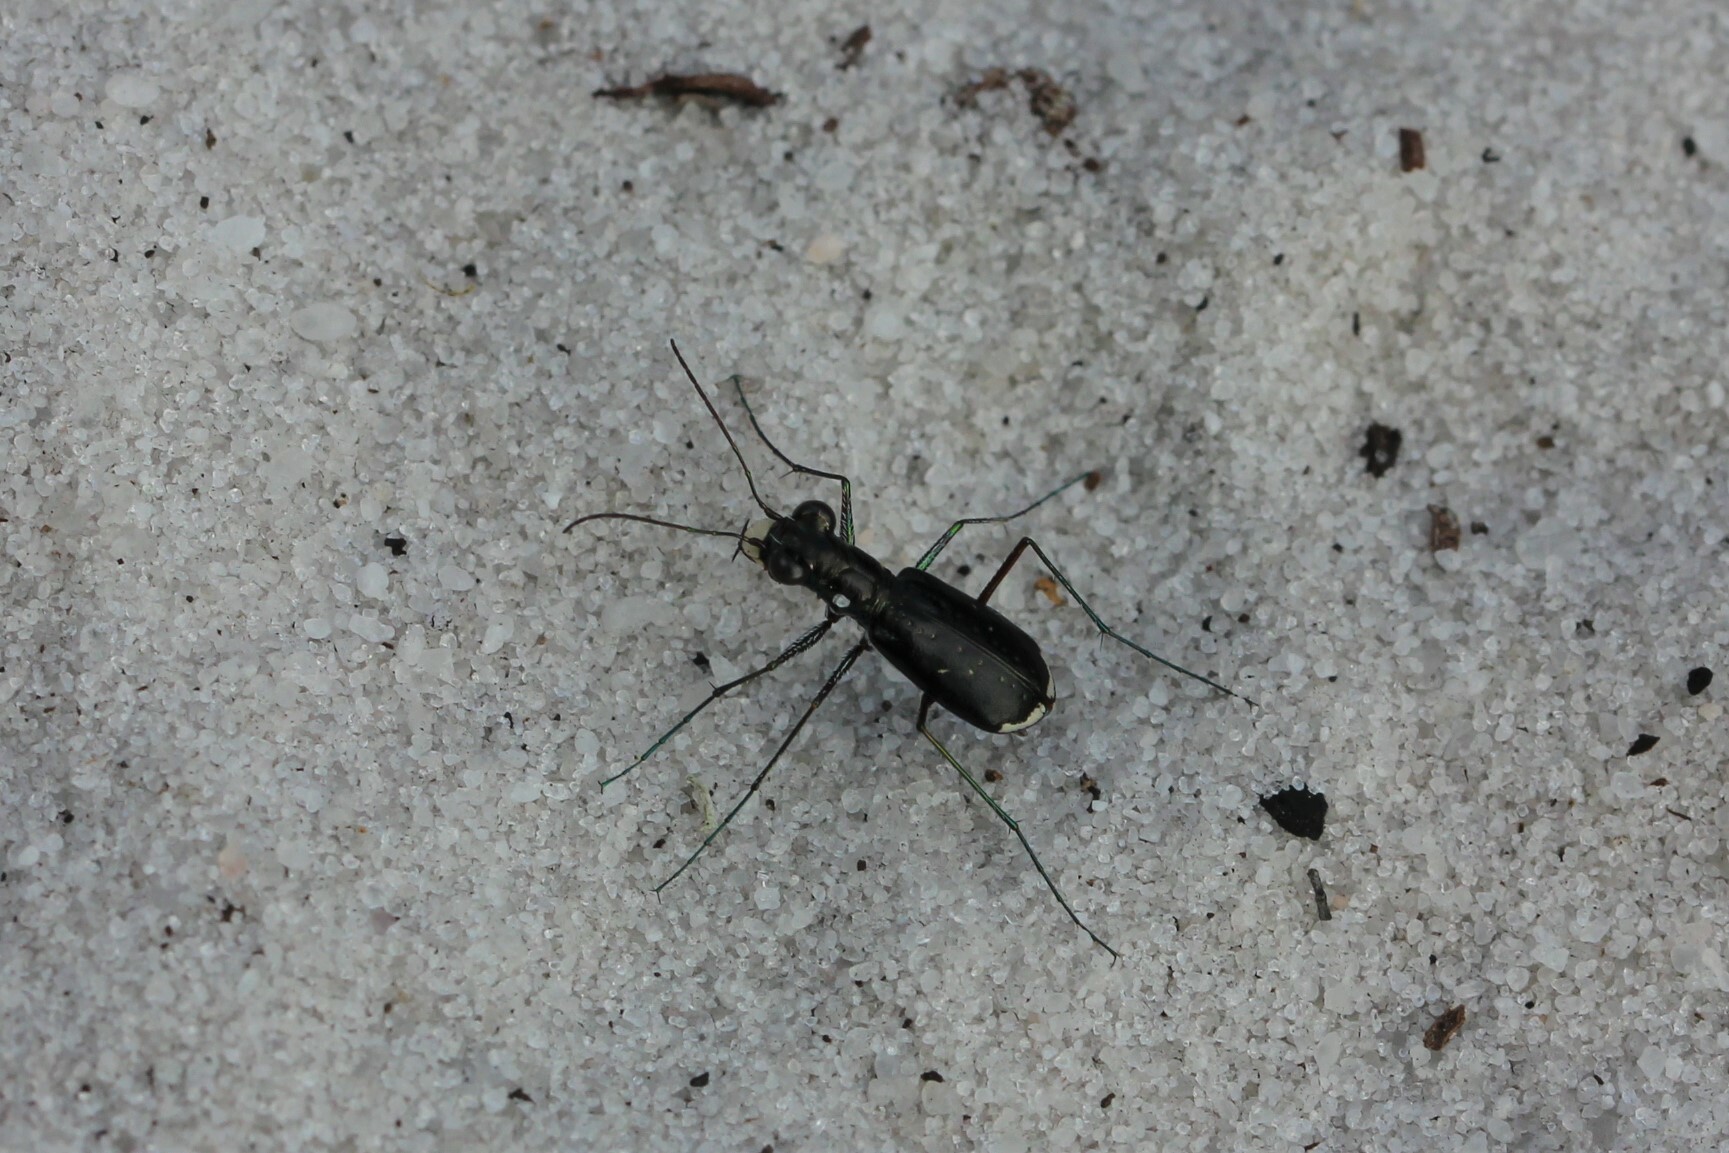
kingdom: Animalia
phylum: Arthropoda
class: Insecta
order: Coleoptera
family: Carabidae
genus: Cicindela
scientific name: Cicindela abdominalis
